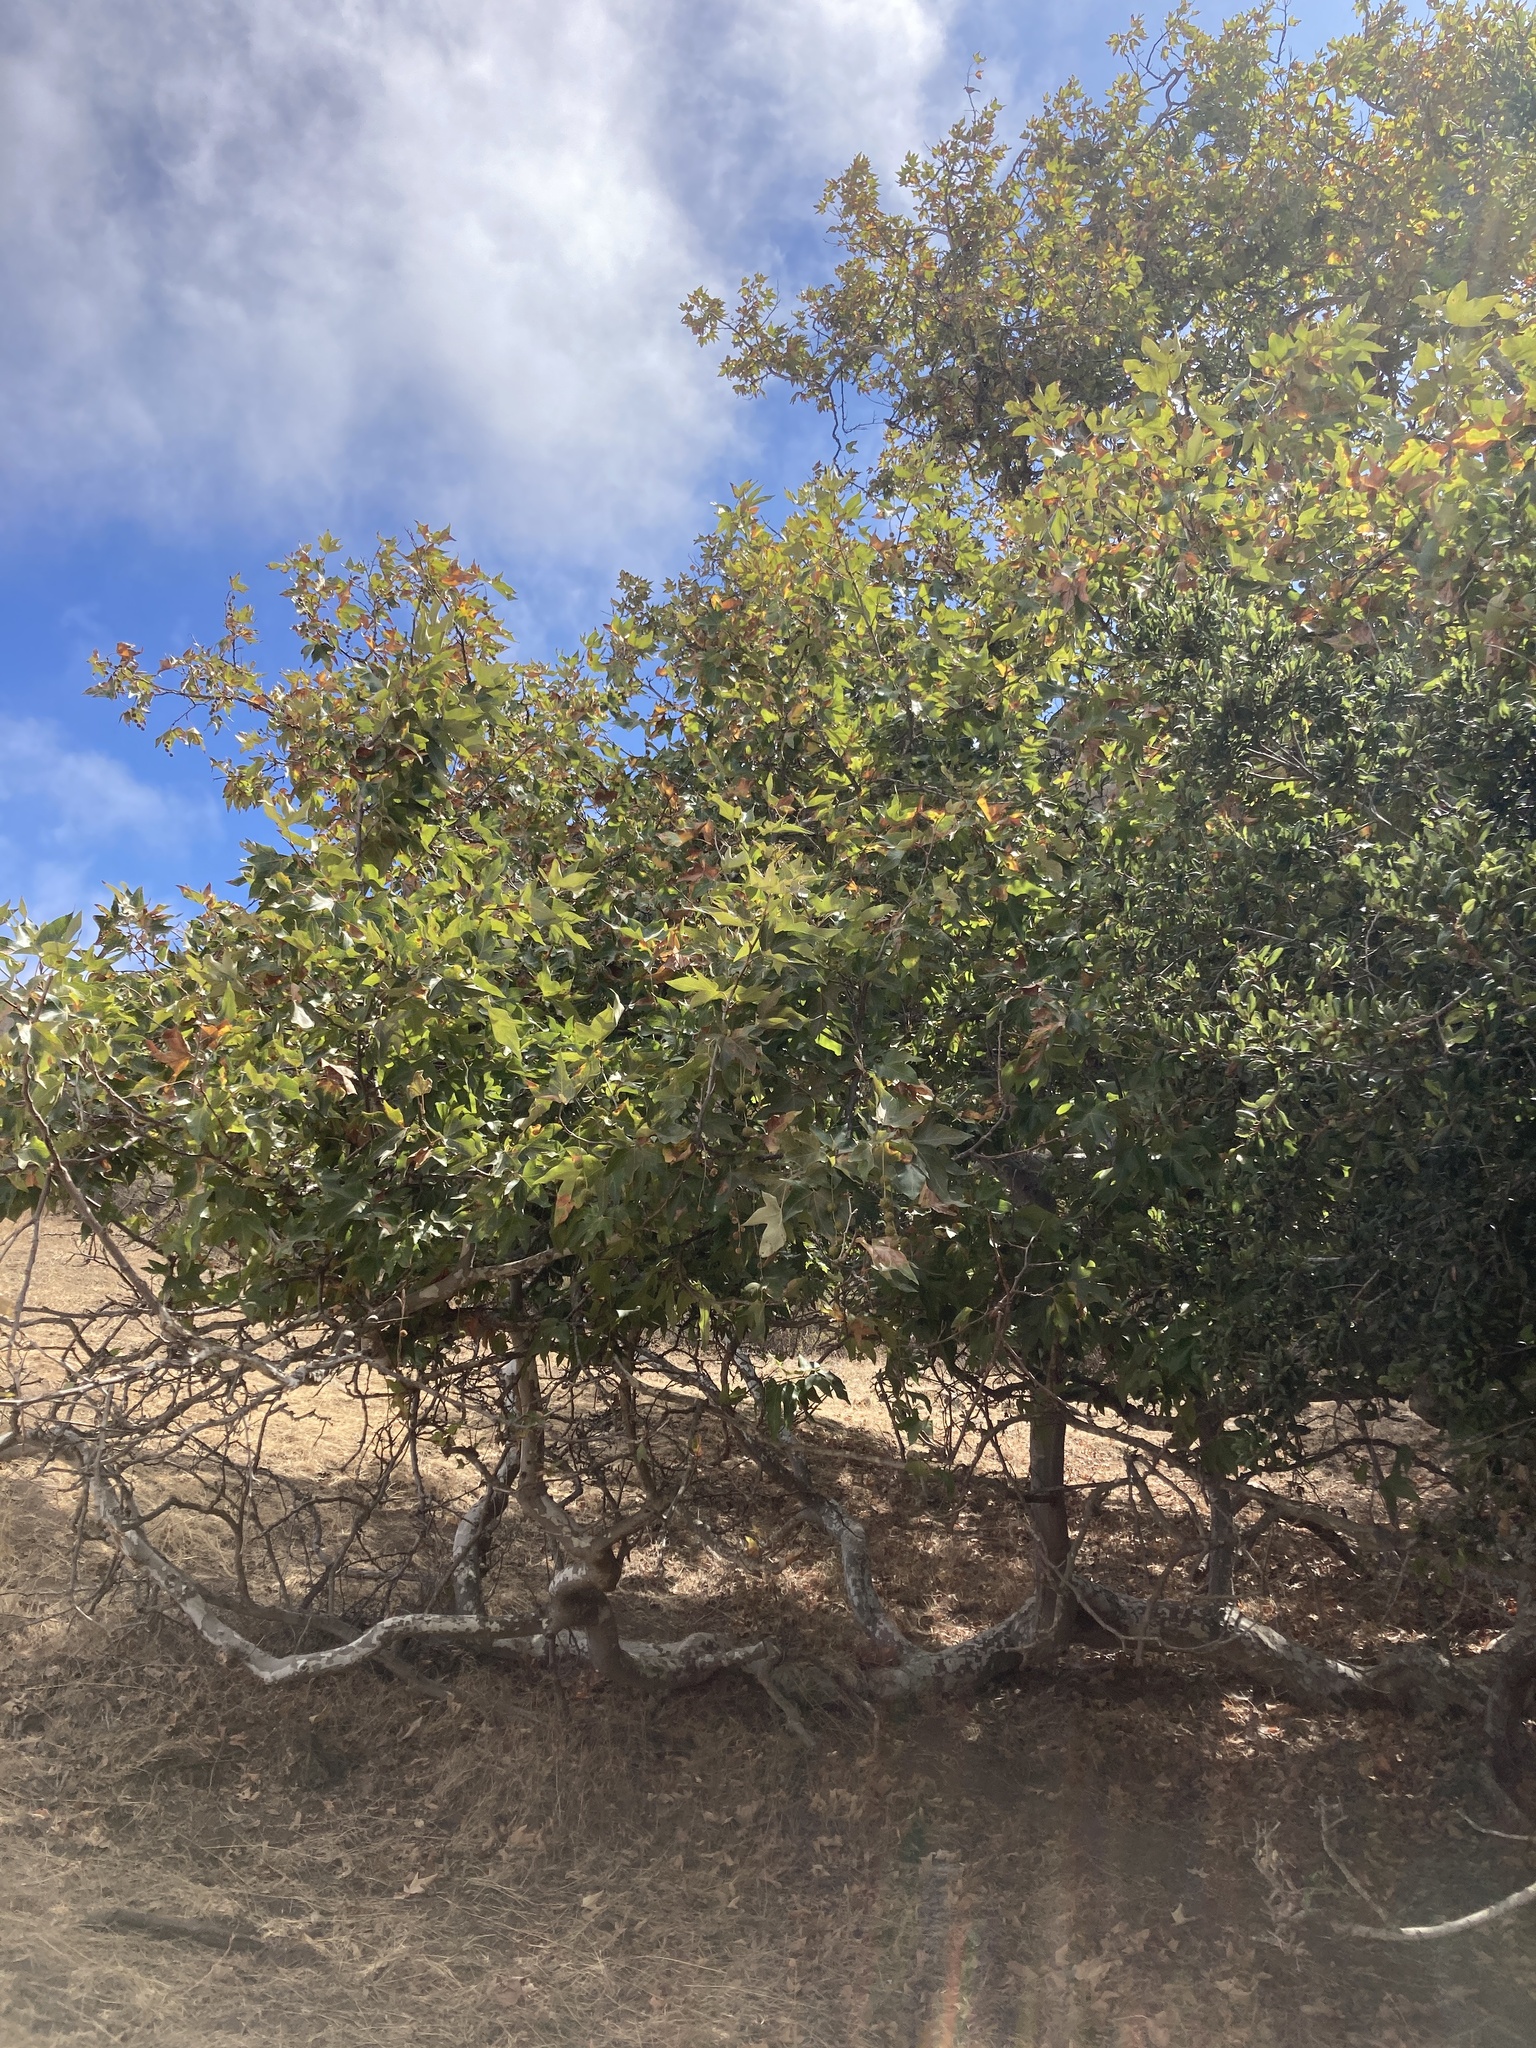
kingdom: Plantae
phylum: Tracheophyta
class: Magnoliopsida
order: Proteales
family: Platanaceae
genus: Platanus
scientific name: Platanus racemosa
